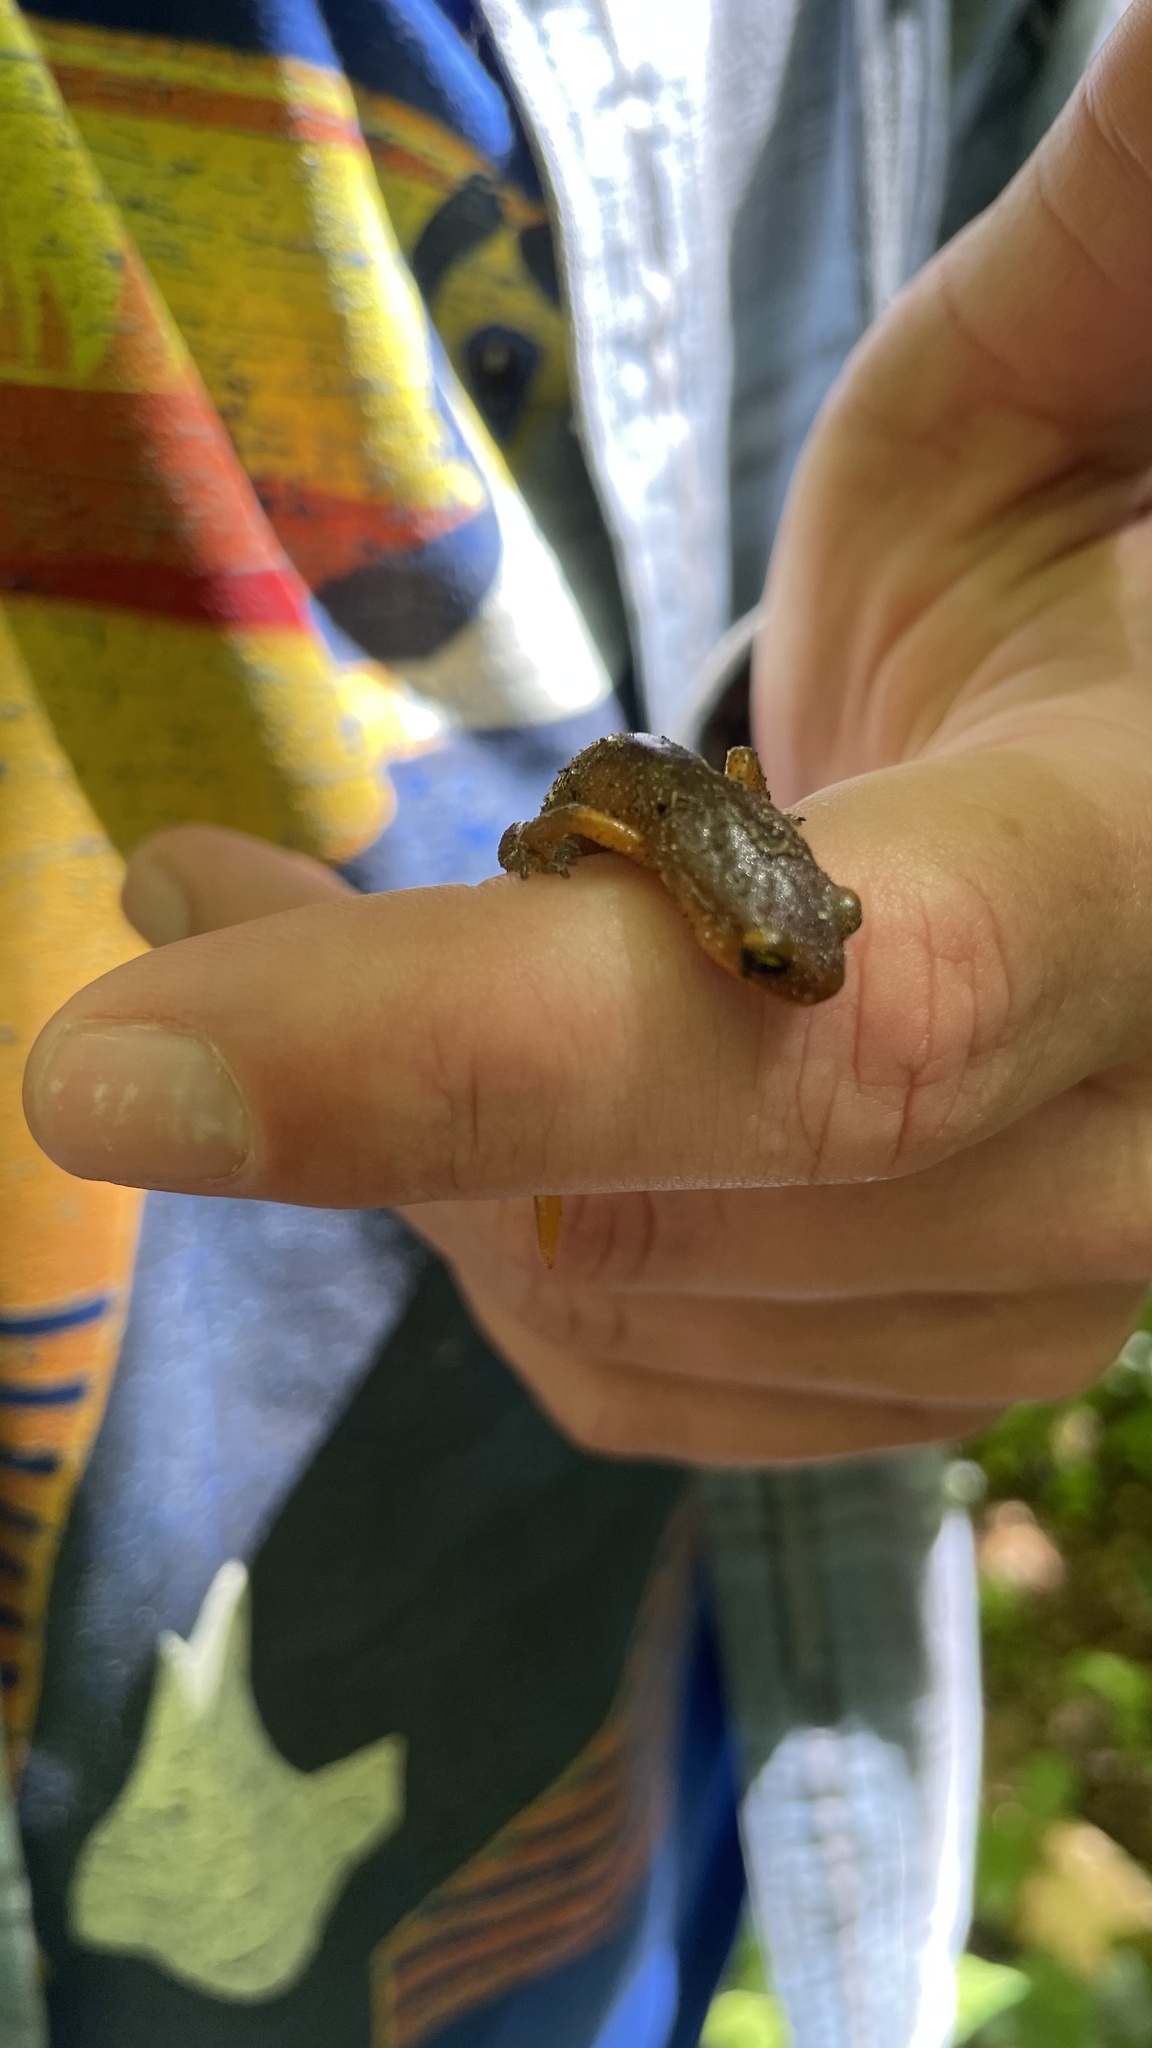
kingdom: Animalia
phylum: Chordata
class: Amphibia
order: Caudata
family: Plethodontidae
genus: Ensatina
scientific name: Ensatina eschscholtzii
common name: Ensatina
